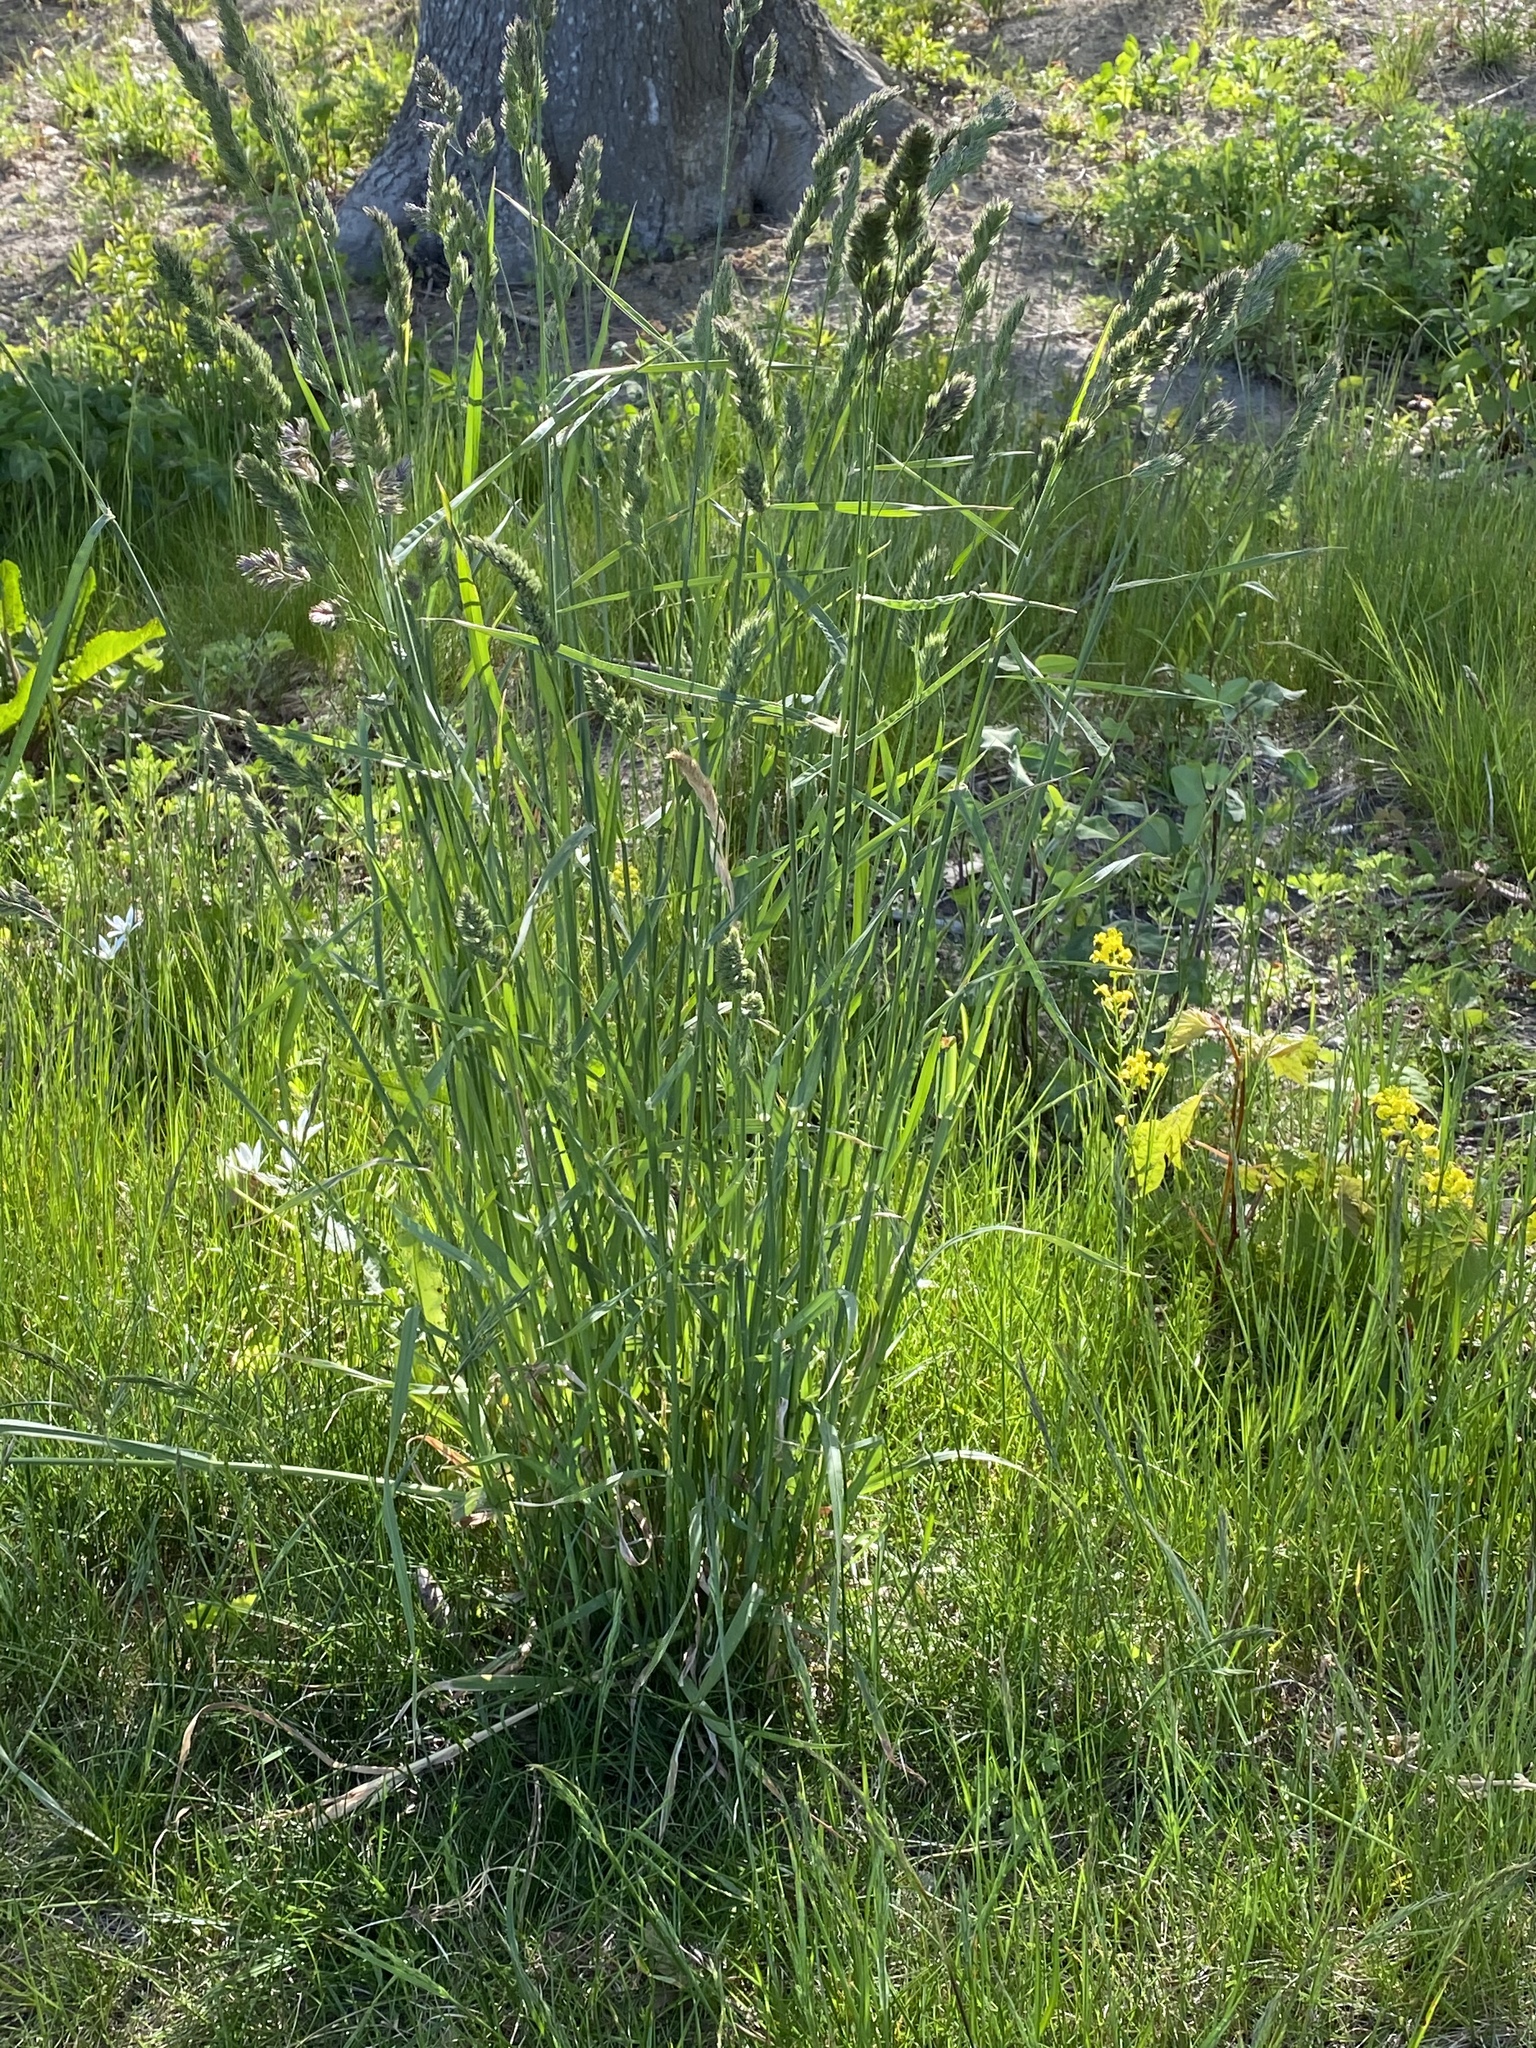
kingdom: Plantae
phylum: Tracheophyta
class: Liliopsida
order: Poales
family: Poaceae
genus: Dactylis
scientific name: Dactylis glomerata
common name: Orchardgrass
